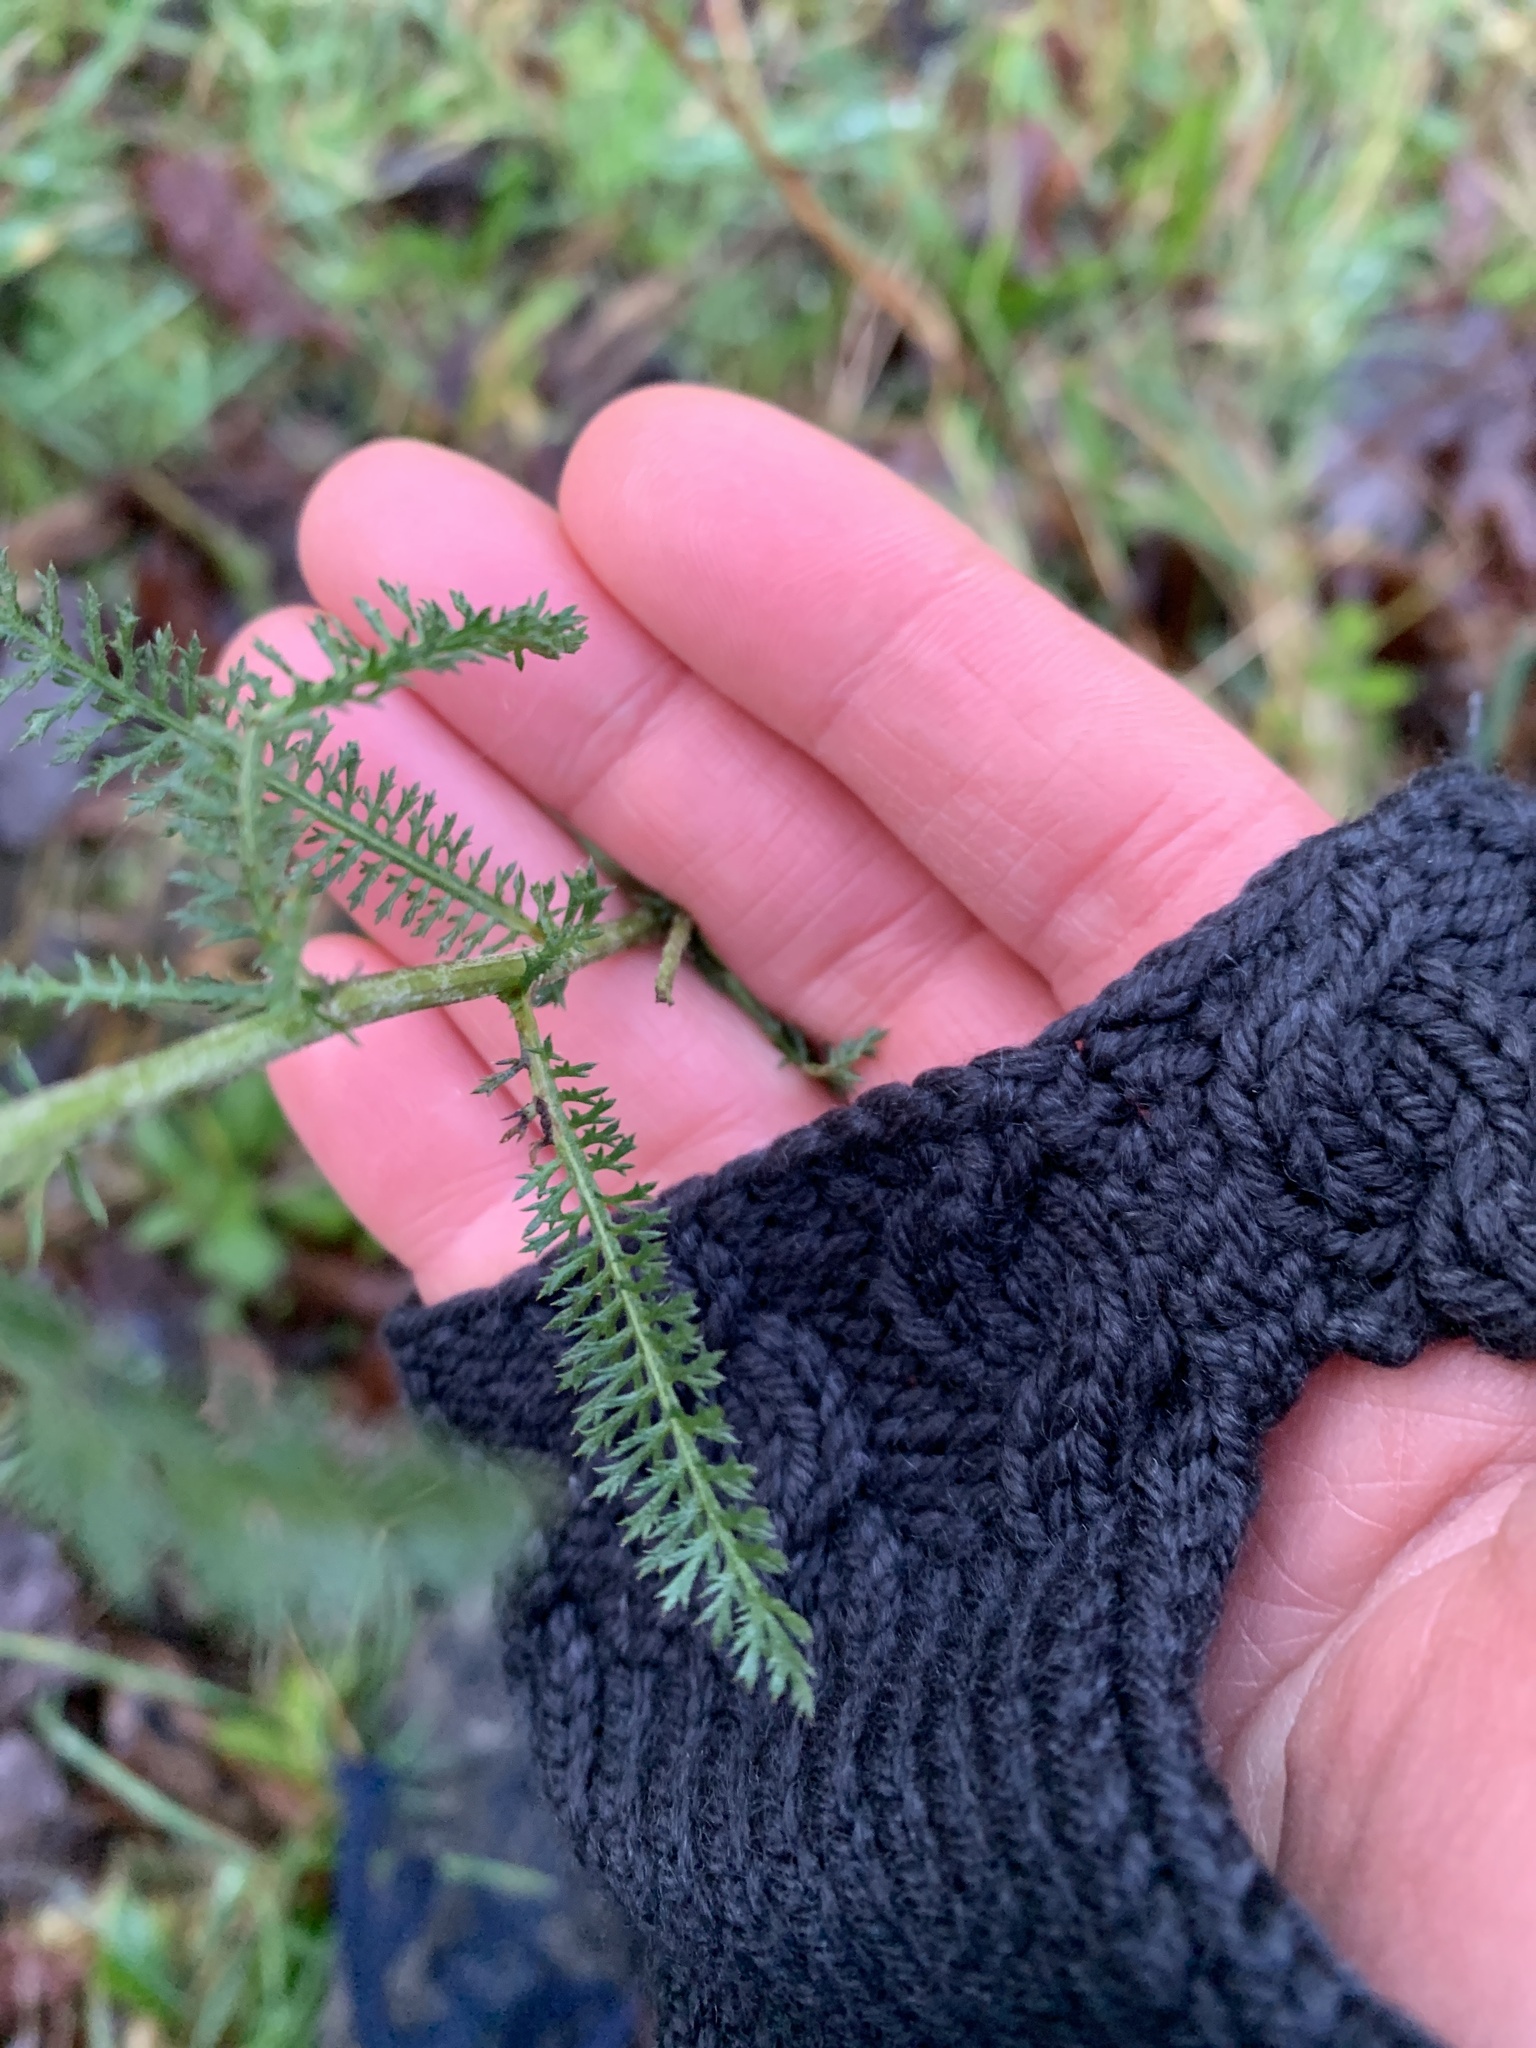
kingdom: Plantae
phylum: Tracheophyta
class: Magnoliopsida
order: Asterales
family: Asteraceae
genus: Achillea
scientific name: Achillea millefolium
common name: Yarrow
